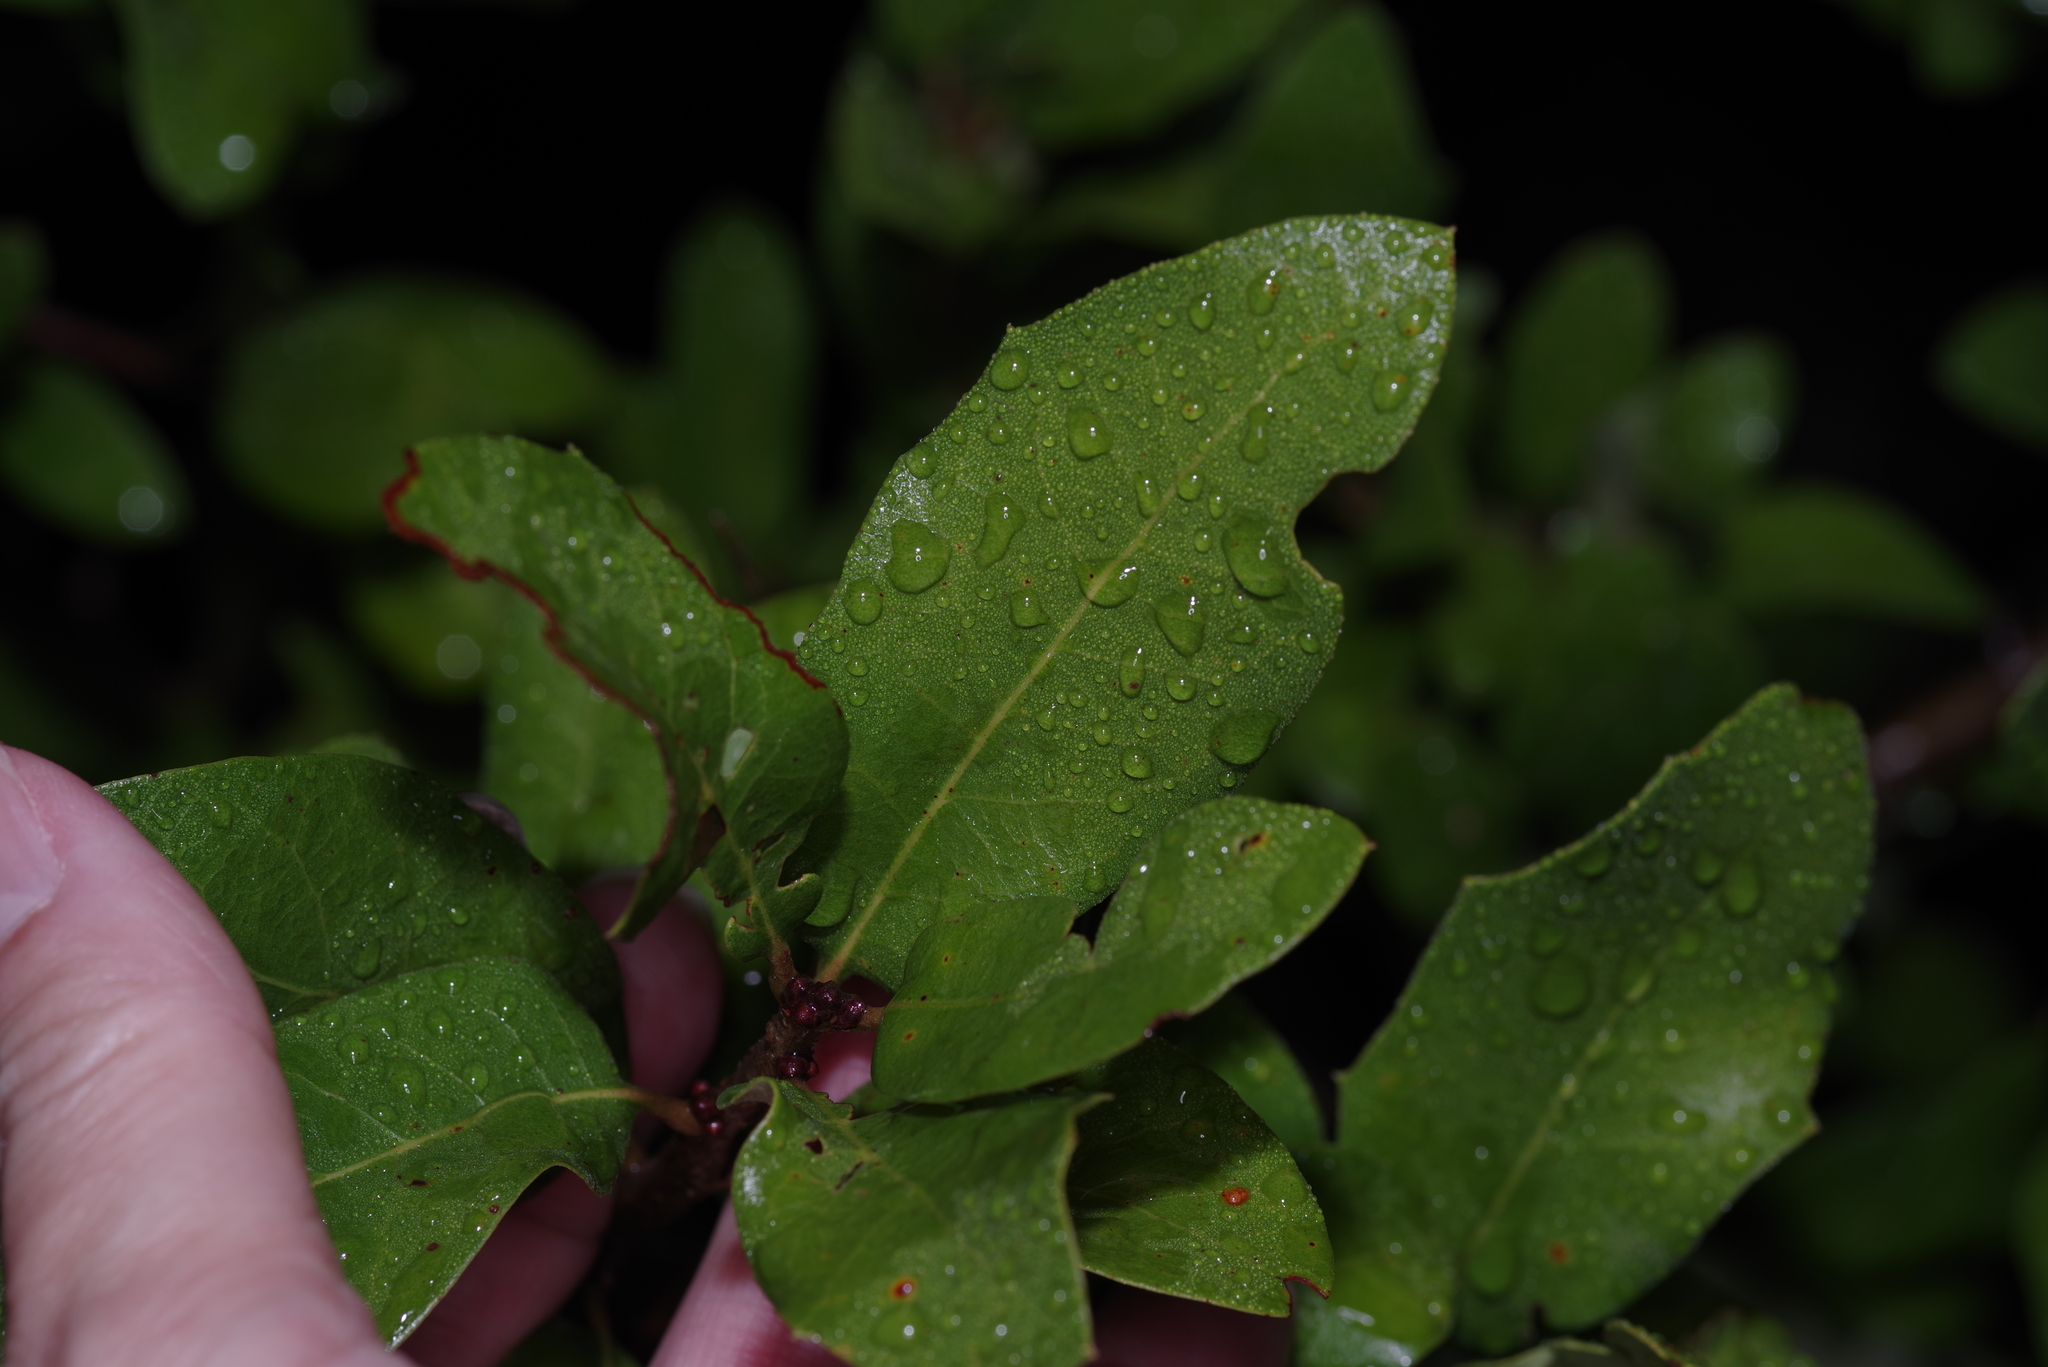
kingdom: Plantae
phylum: Tracheophyta
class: Magnoliopsida
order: Fagales
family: Fagaceae
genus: Quercus
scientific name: Quercus fusiformis
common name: Texas live oak
